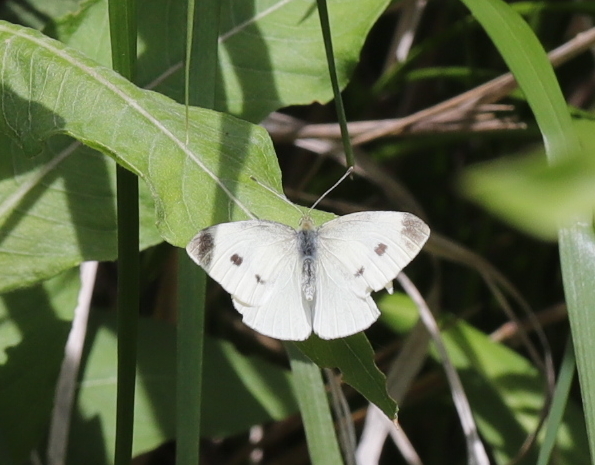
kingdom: Animalia
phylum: Arthropoda
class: Insecta
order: Lepidoptera
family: Pieridae
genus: Pieris
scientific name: Pieris rapae
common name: Small white
